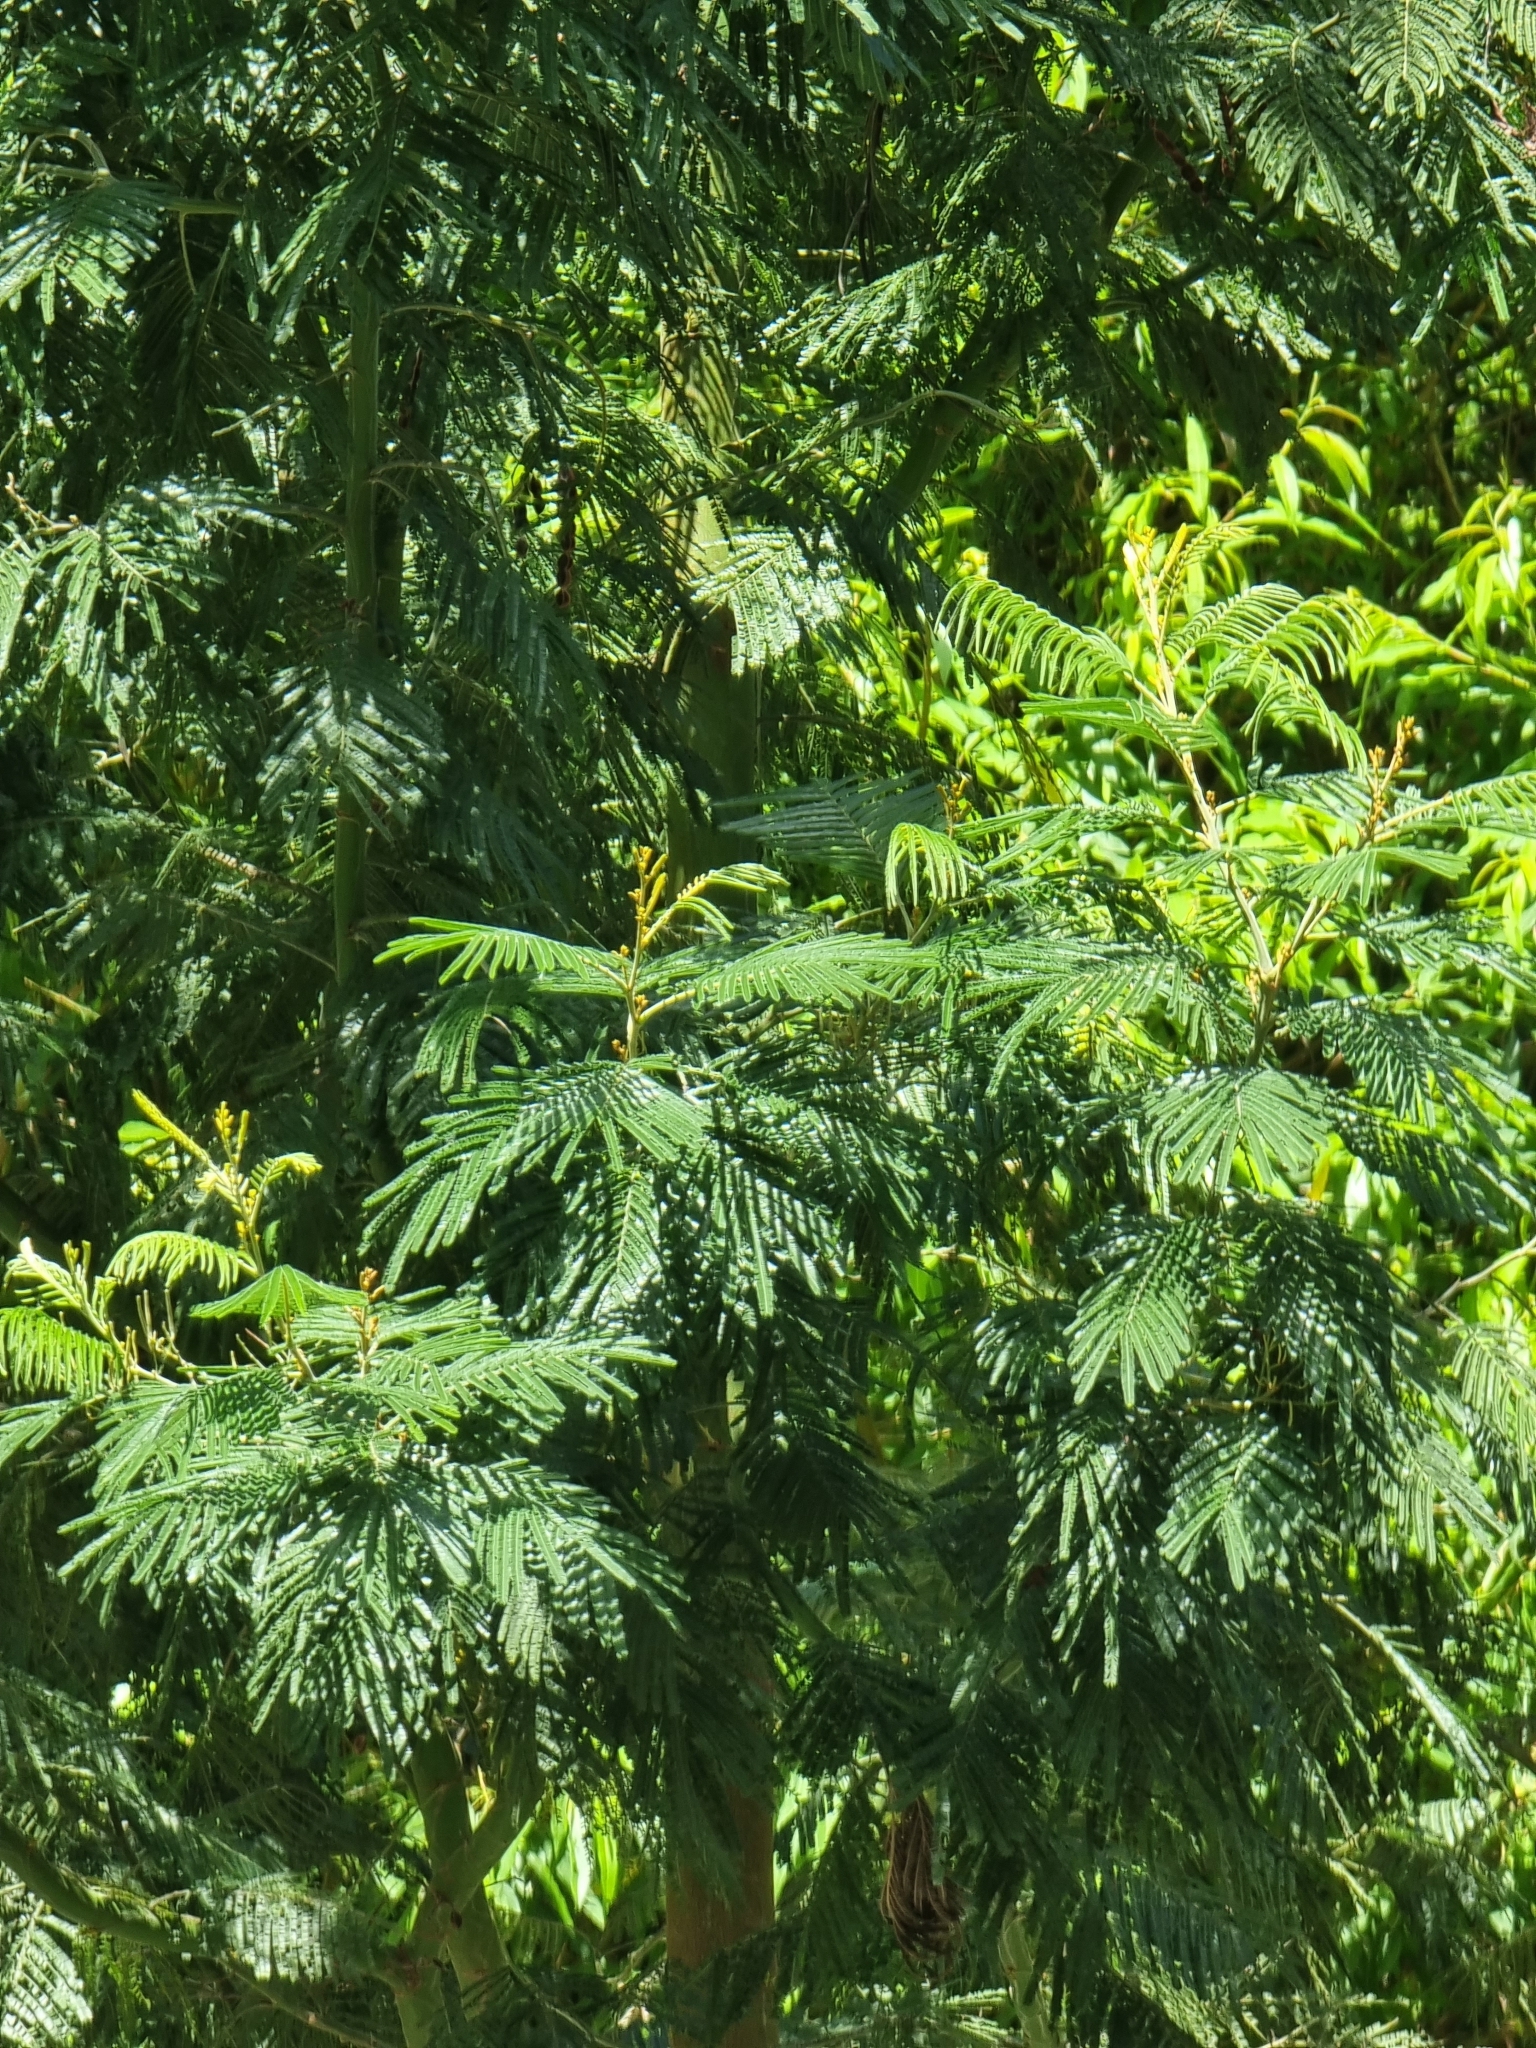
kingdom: Plantae
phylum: Tracheophyta
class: Magnoliopsida
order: Fabales
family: Fabaceae
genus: Acacia
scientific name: Acacia mearnsii
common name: Black wattle
